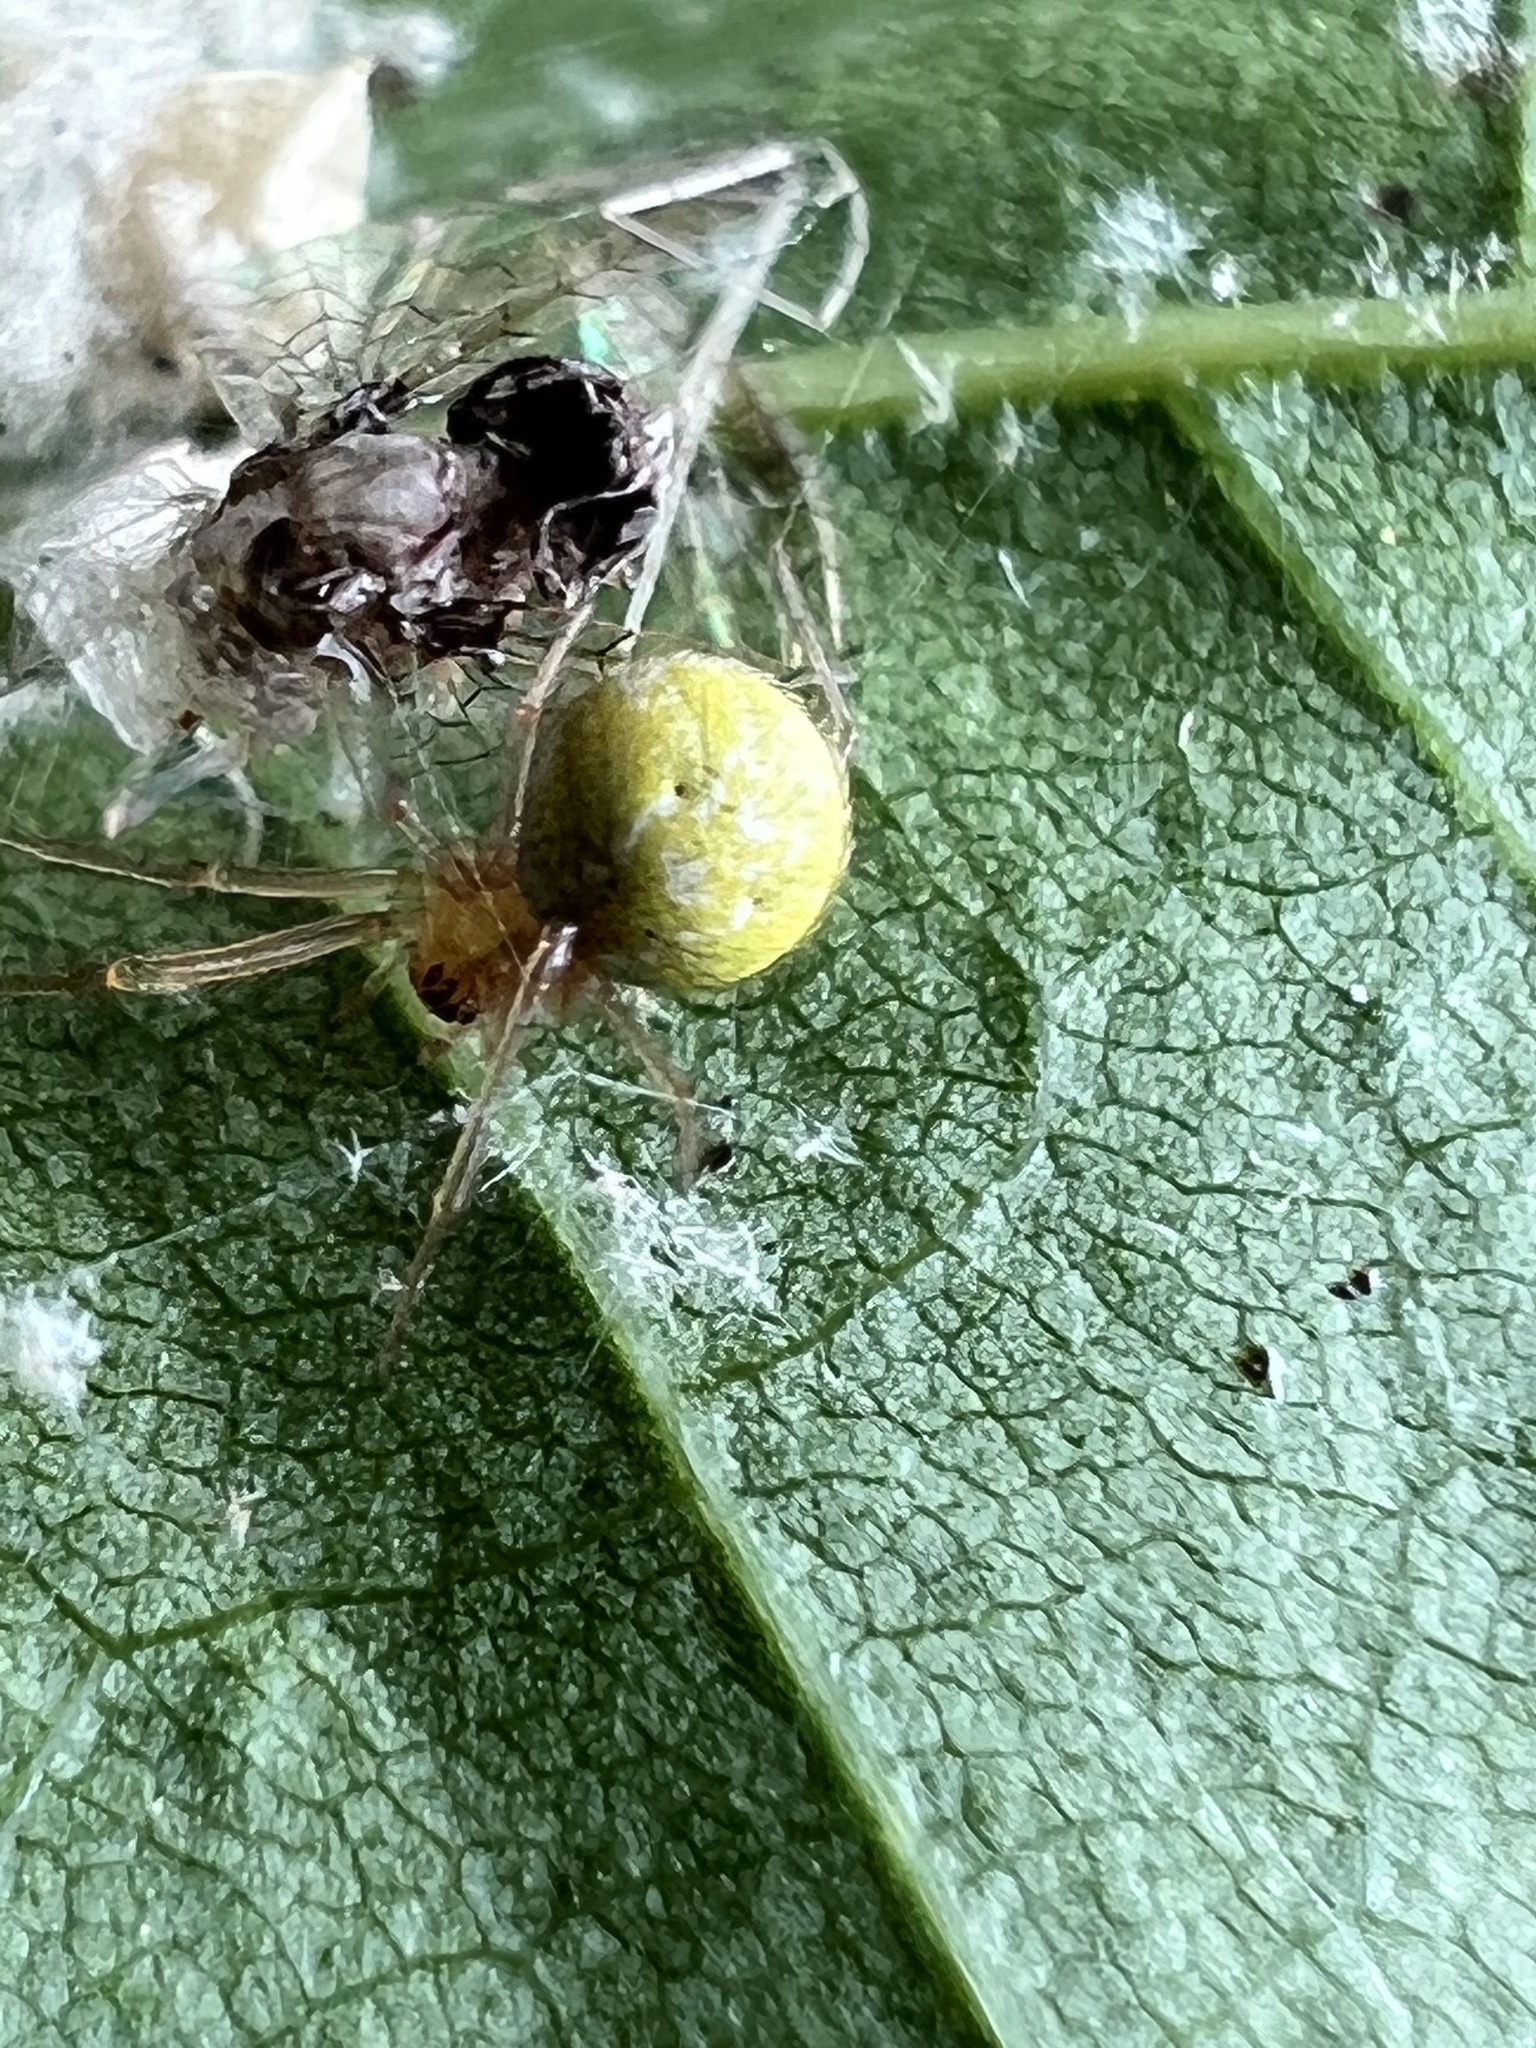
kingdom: Animalia
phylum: Arthropoda
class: Arachnida
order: Araneae
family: Araneidae
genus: Araniella
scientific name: Araniella displicata
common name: Sixspotted orb weaver
